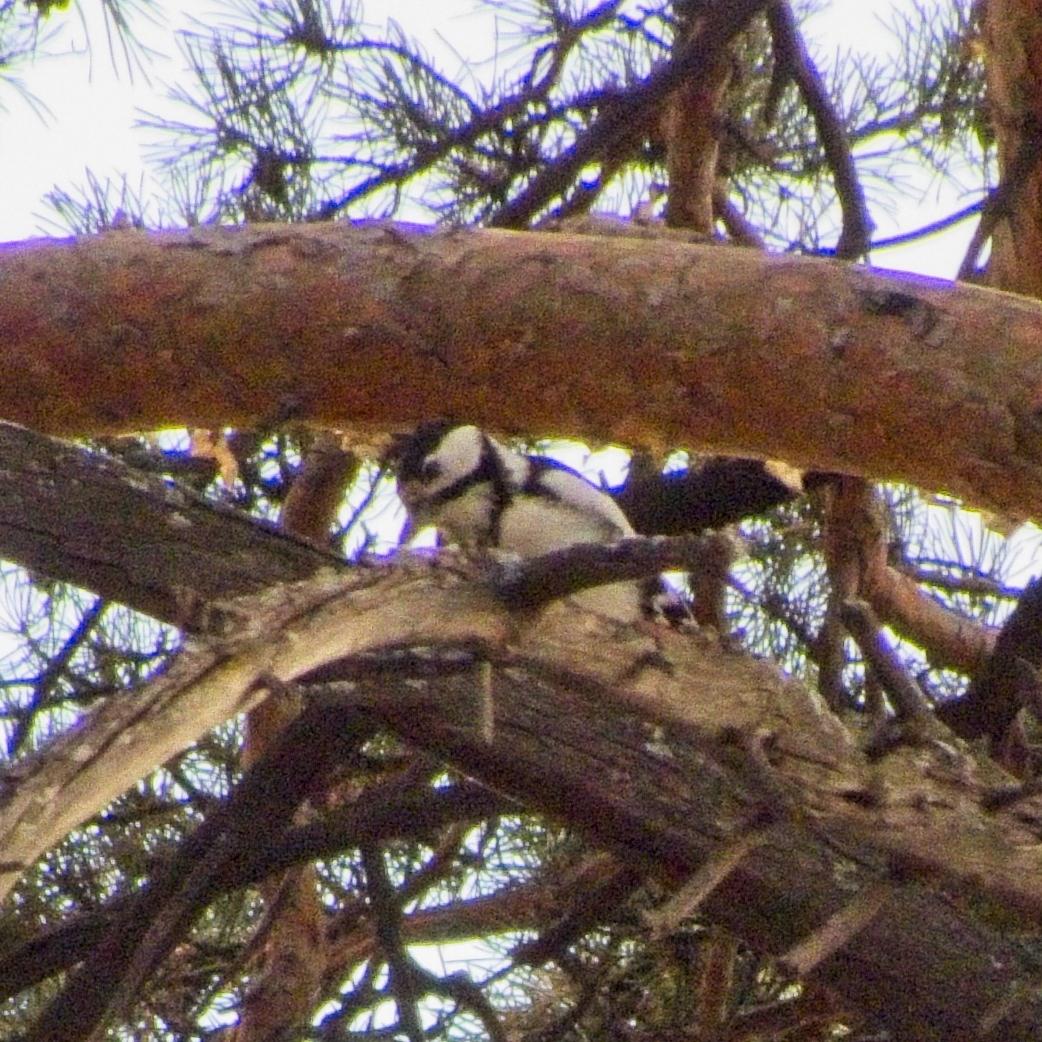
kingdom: Animalia
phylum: Chordata
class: Aves
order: Piciformes
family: Picidae
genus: Dendrocopos
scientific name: Dendrocopos major
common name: Great spotted woodpecker
